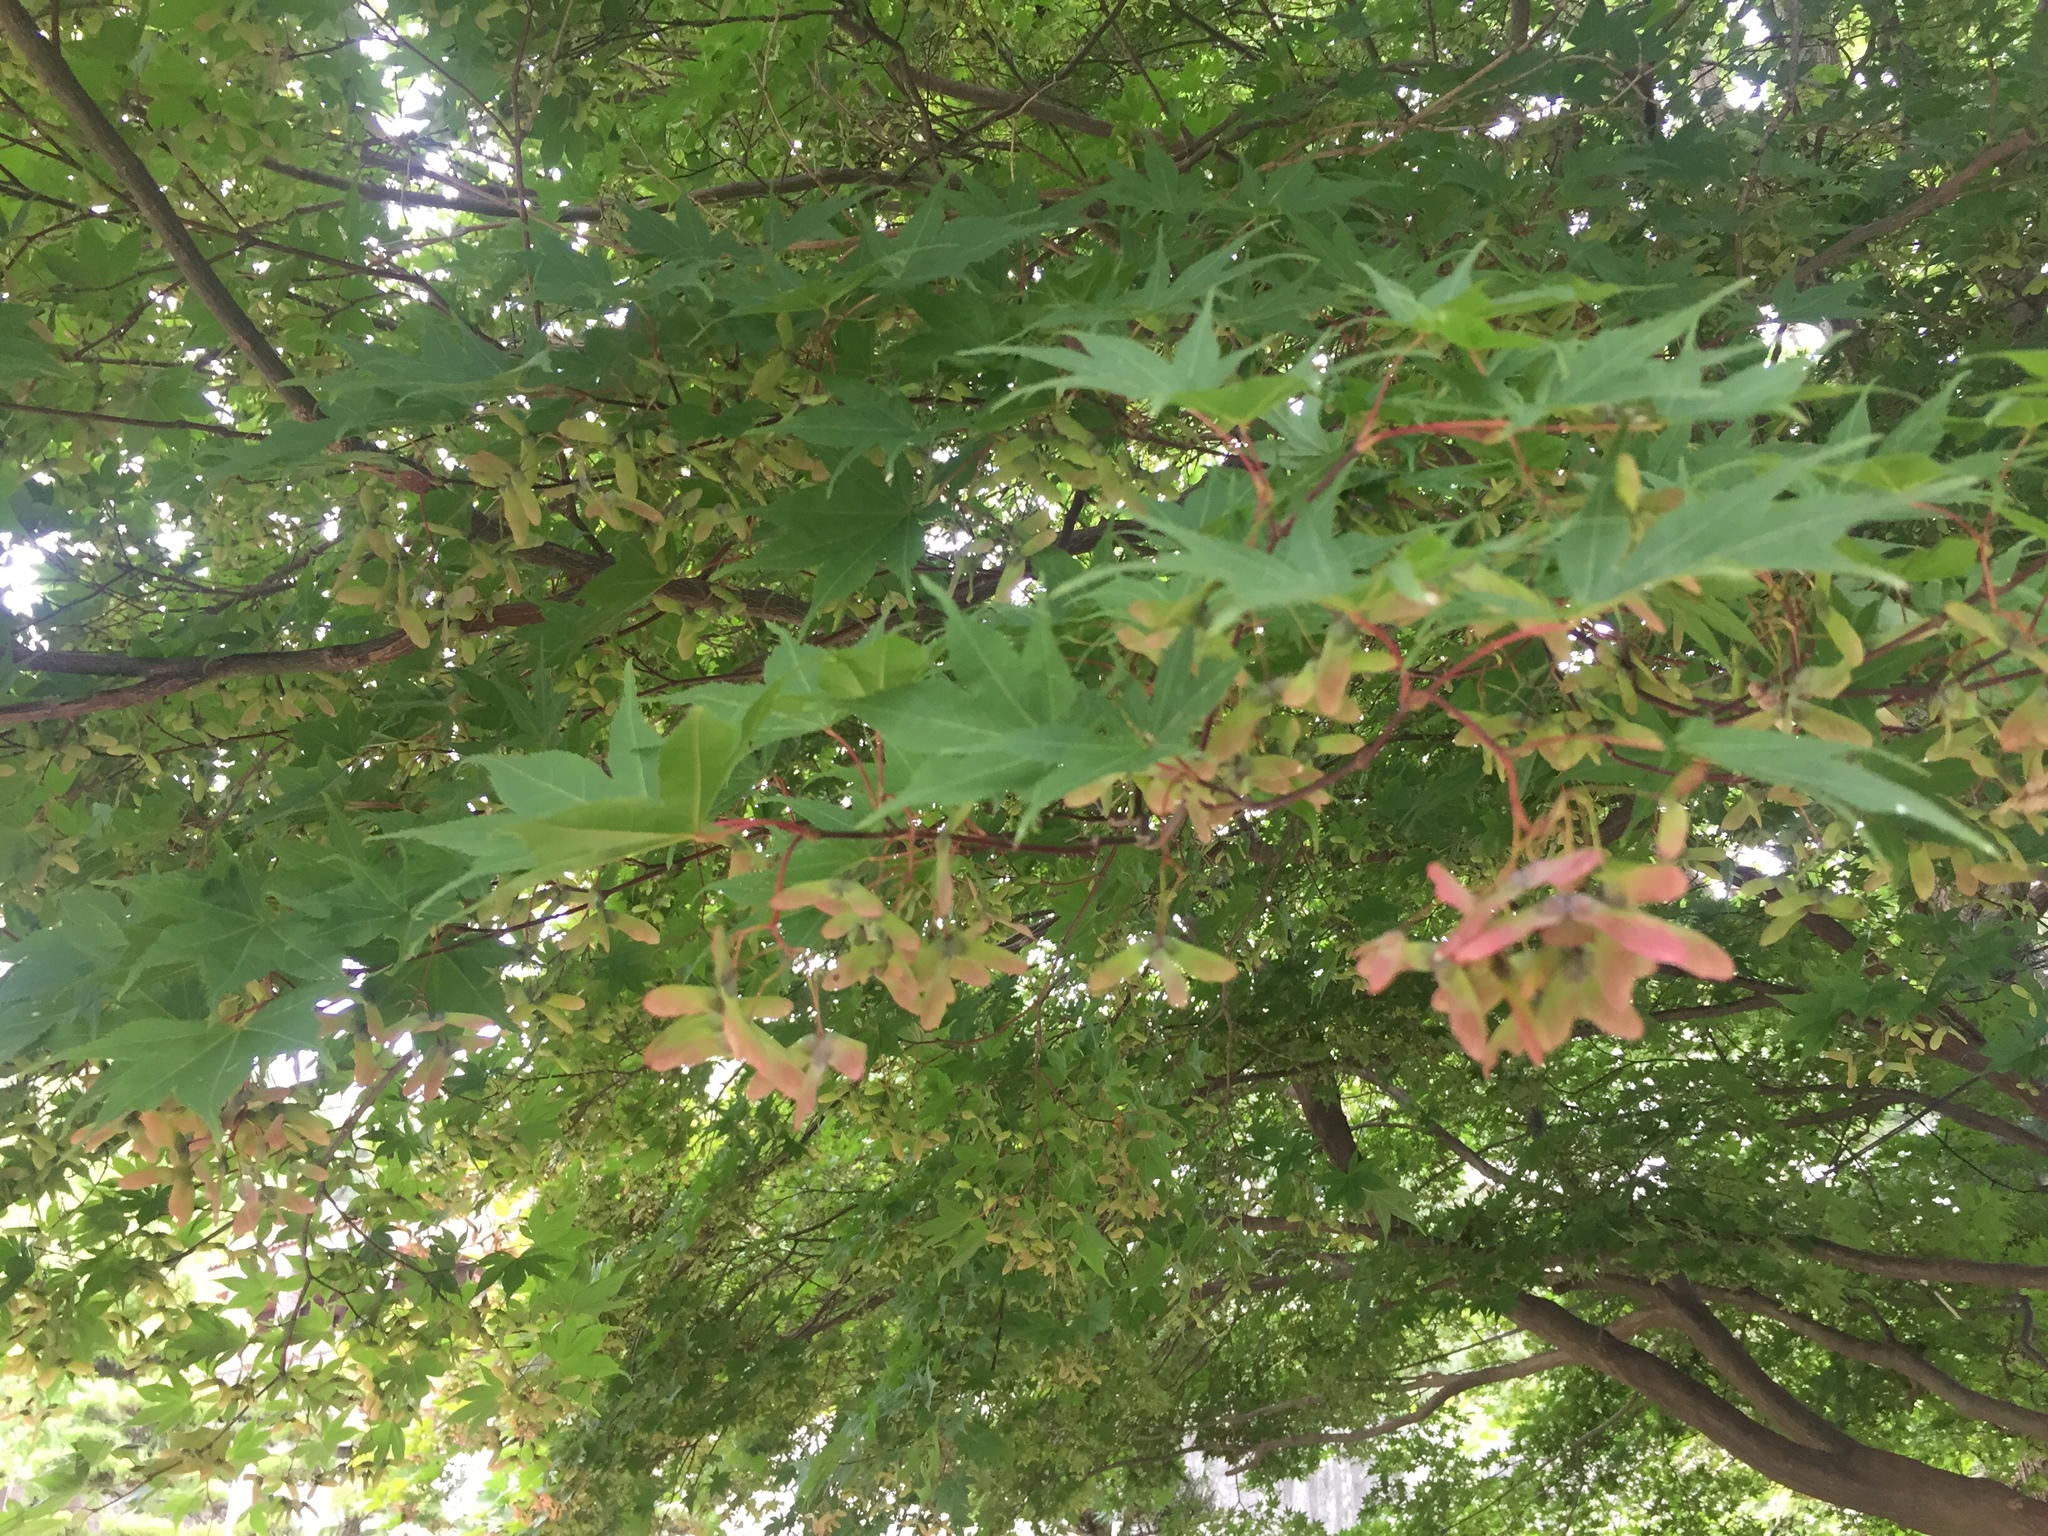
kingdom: Plantae
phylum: Tracheophyta
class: Magnoliopsida
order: Sapindales
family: Sapindaceae
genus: Acer
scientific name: Acer palmatum
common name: Japanese maple
